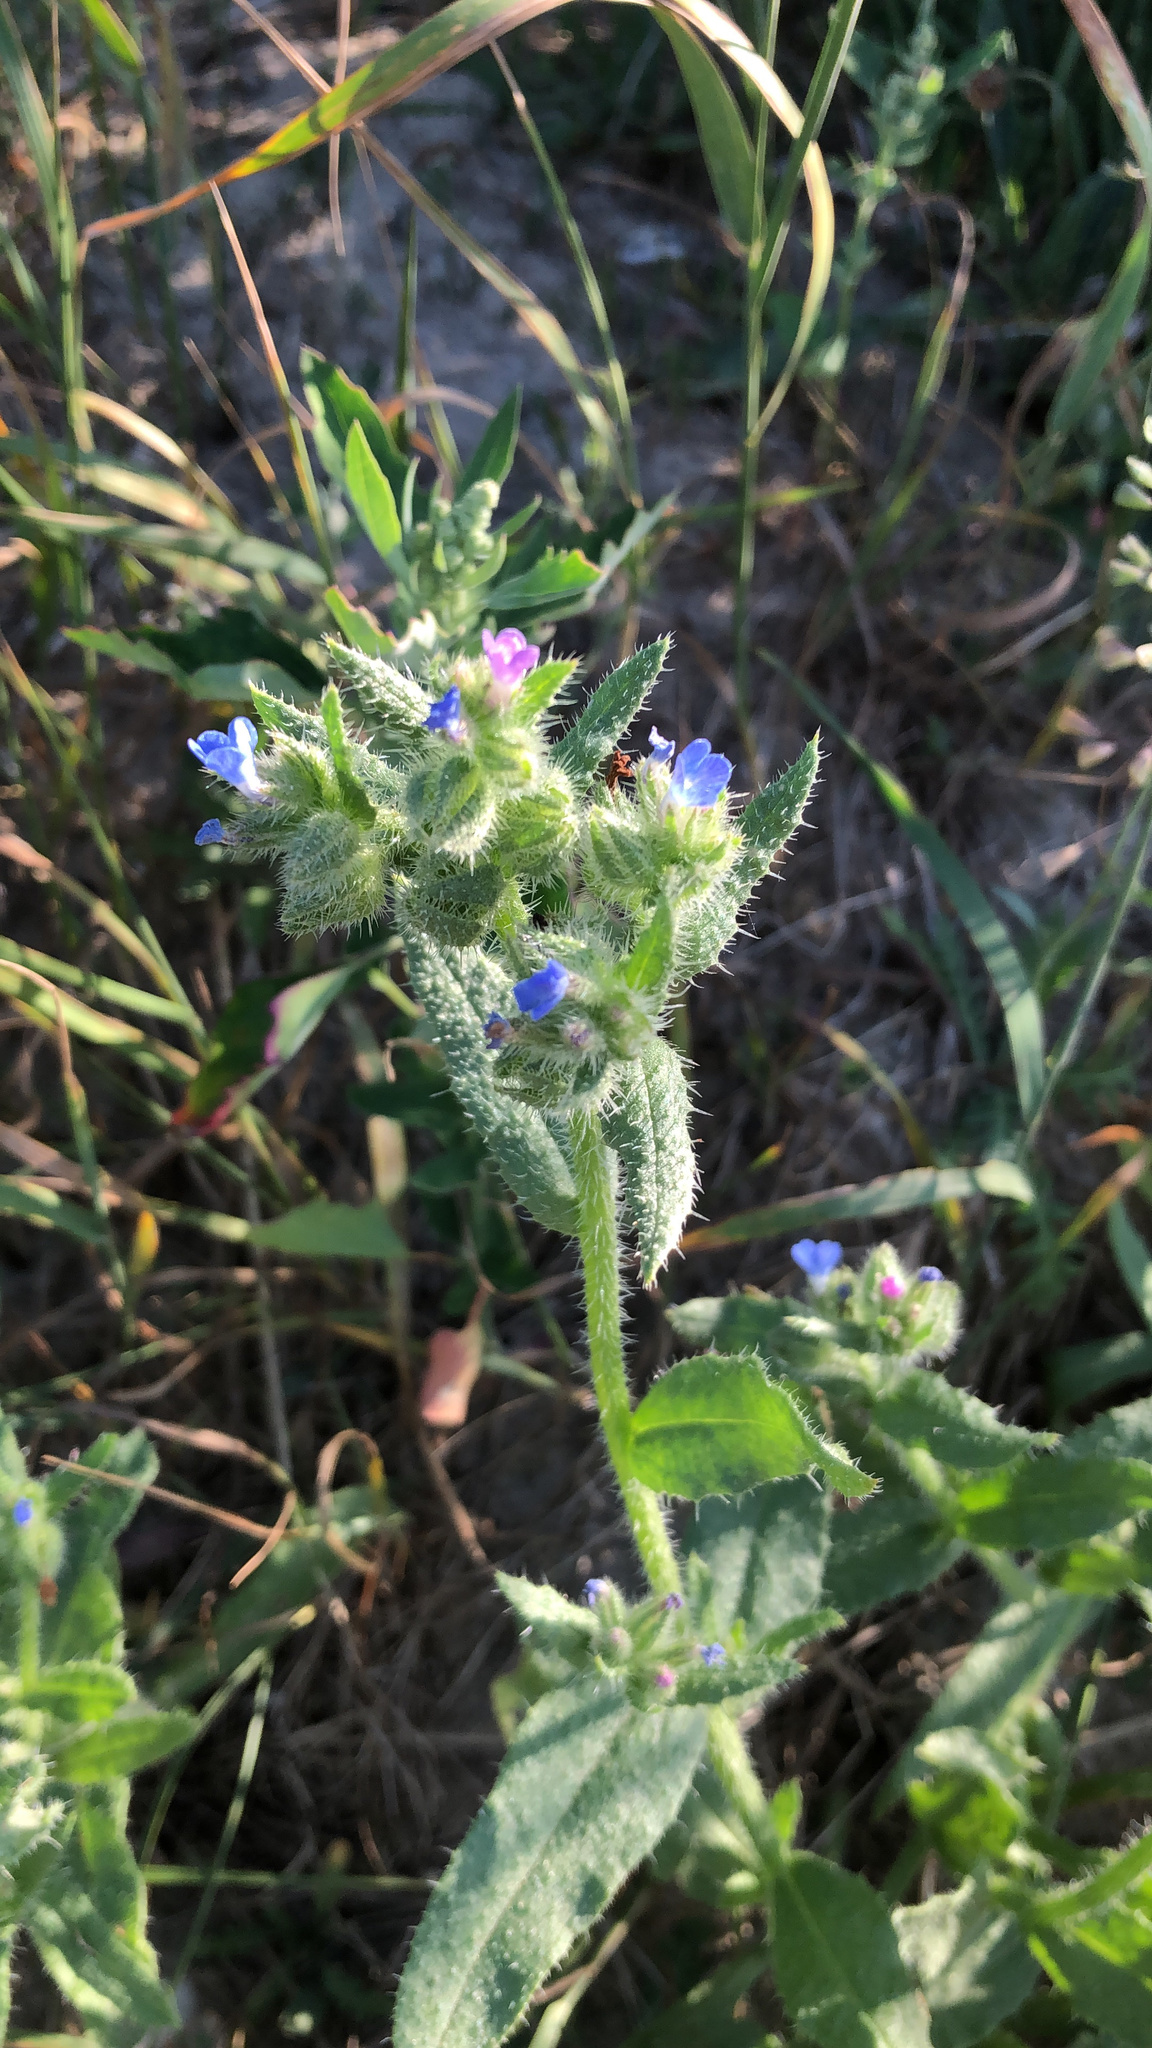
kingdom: Plantae
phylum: Tracheophyta
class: Magnoliopsida
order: Boraginales
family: Boraginaceae
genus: Lycopsis
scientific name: Lycopsis arvensis
